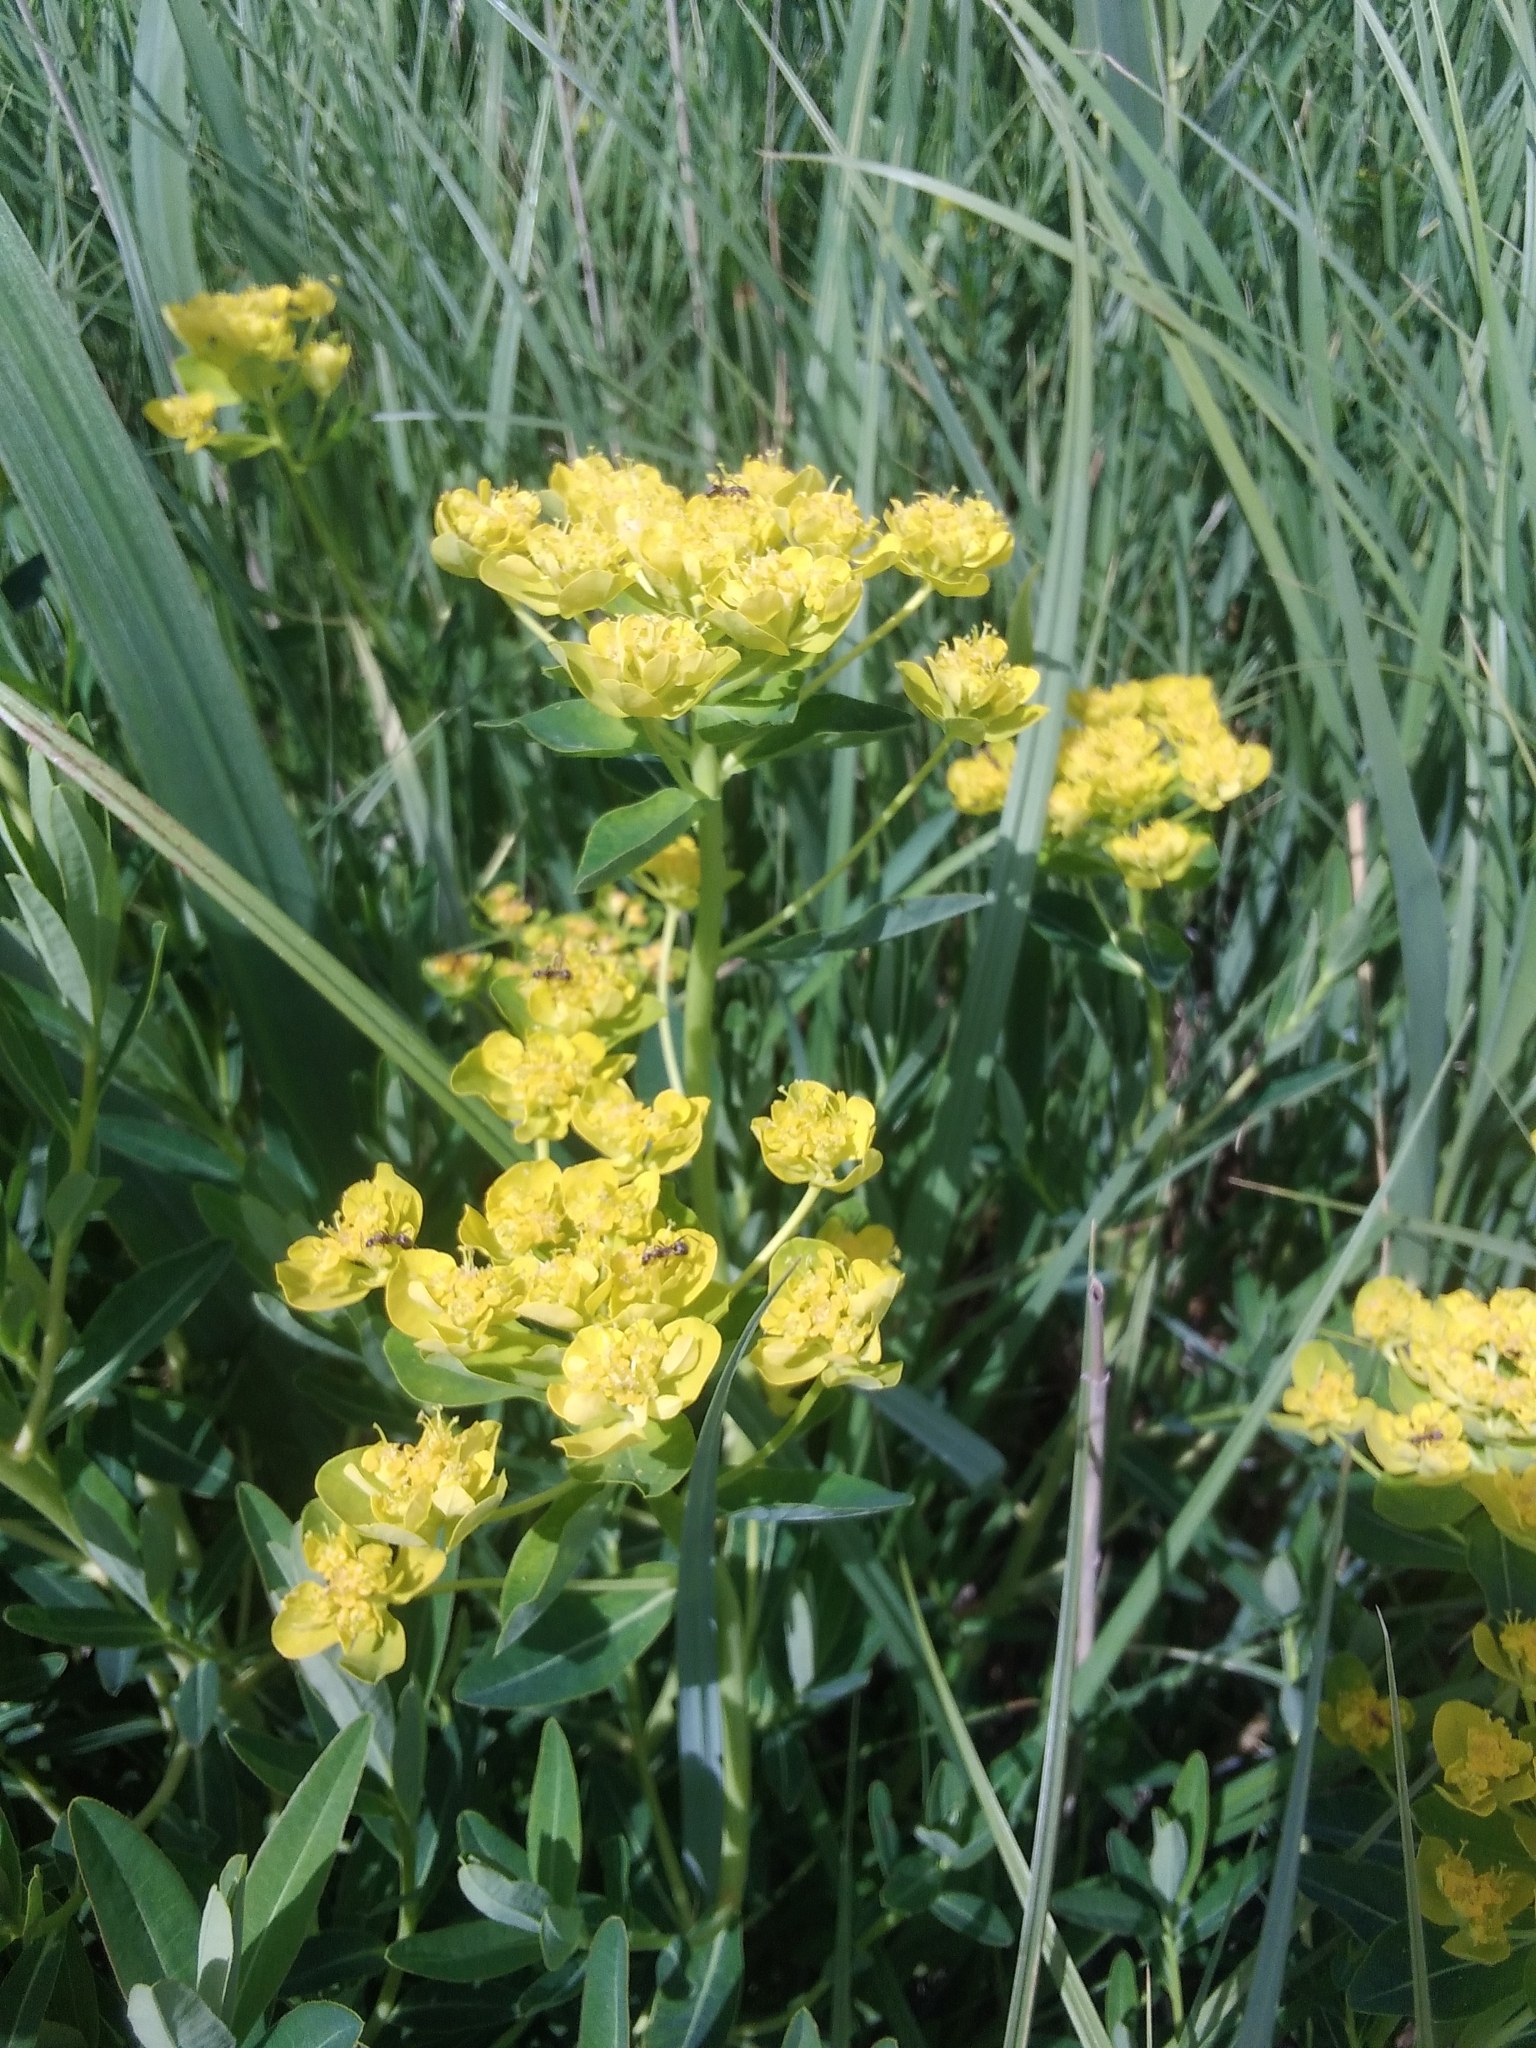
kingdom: Plantae
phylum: Tracheophyta
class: Magnoliopsida
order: Malpighiales
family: Euphorbiaceae
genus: Euphorbia
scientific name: Euphorbia palustris
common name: Marsh spurge
